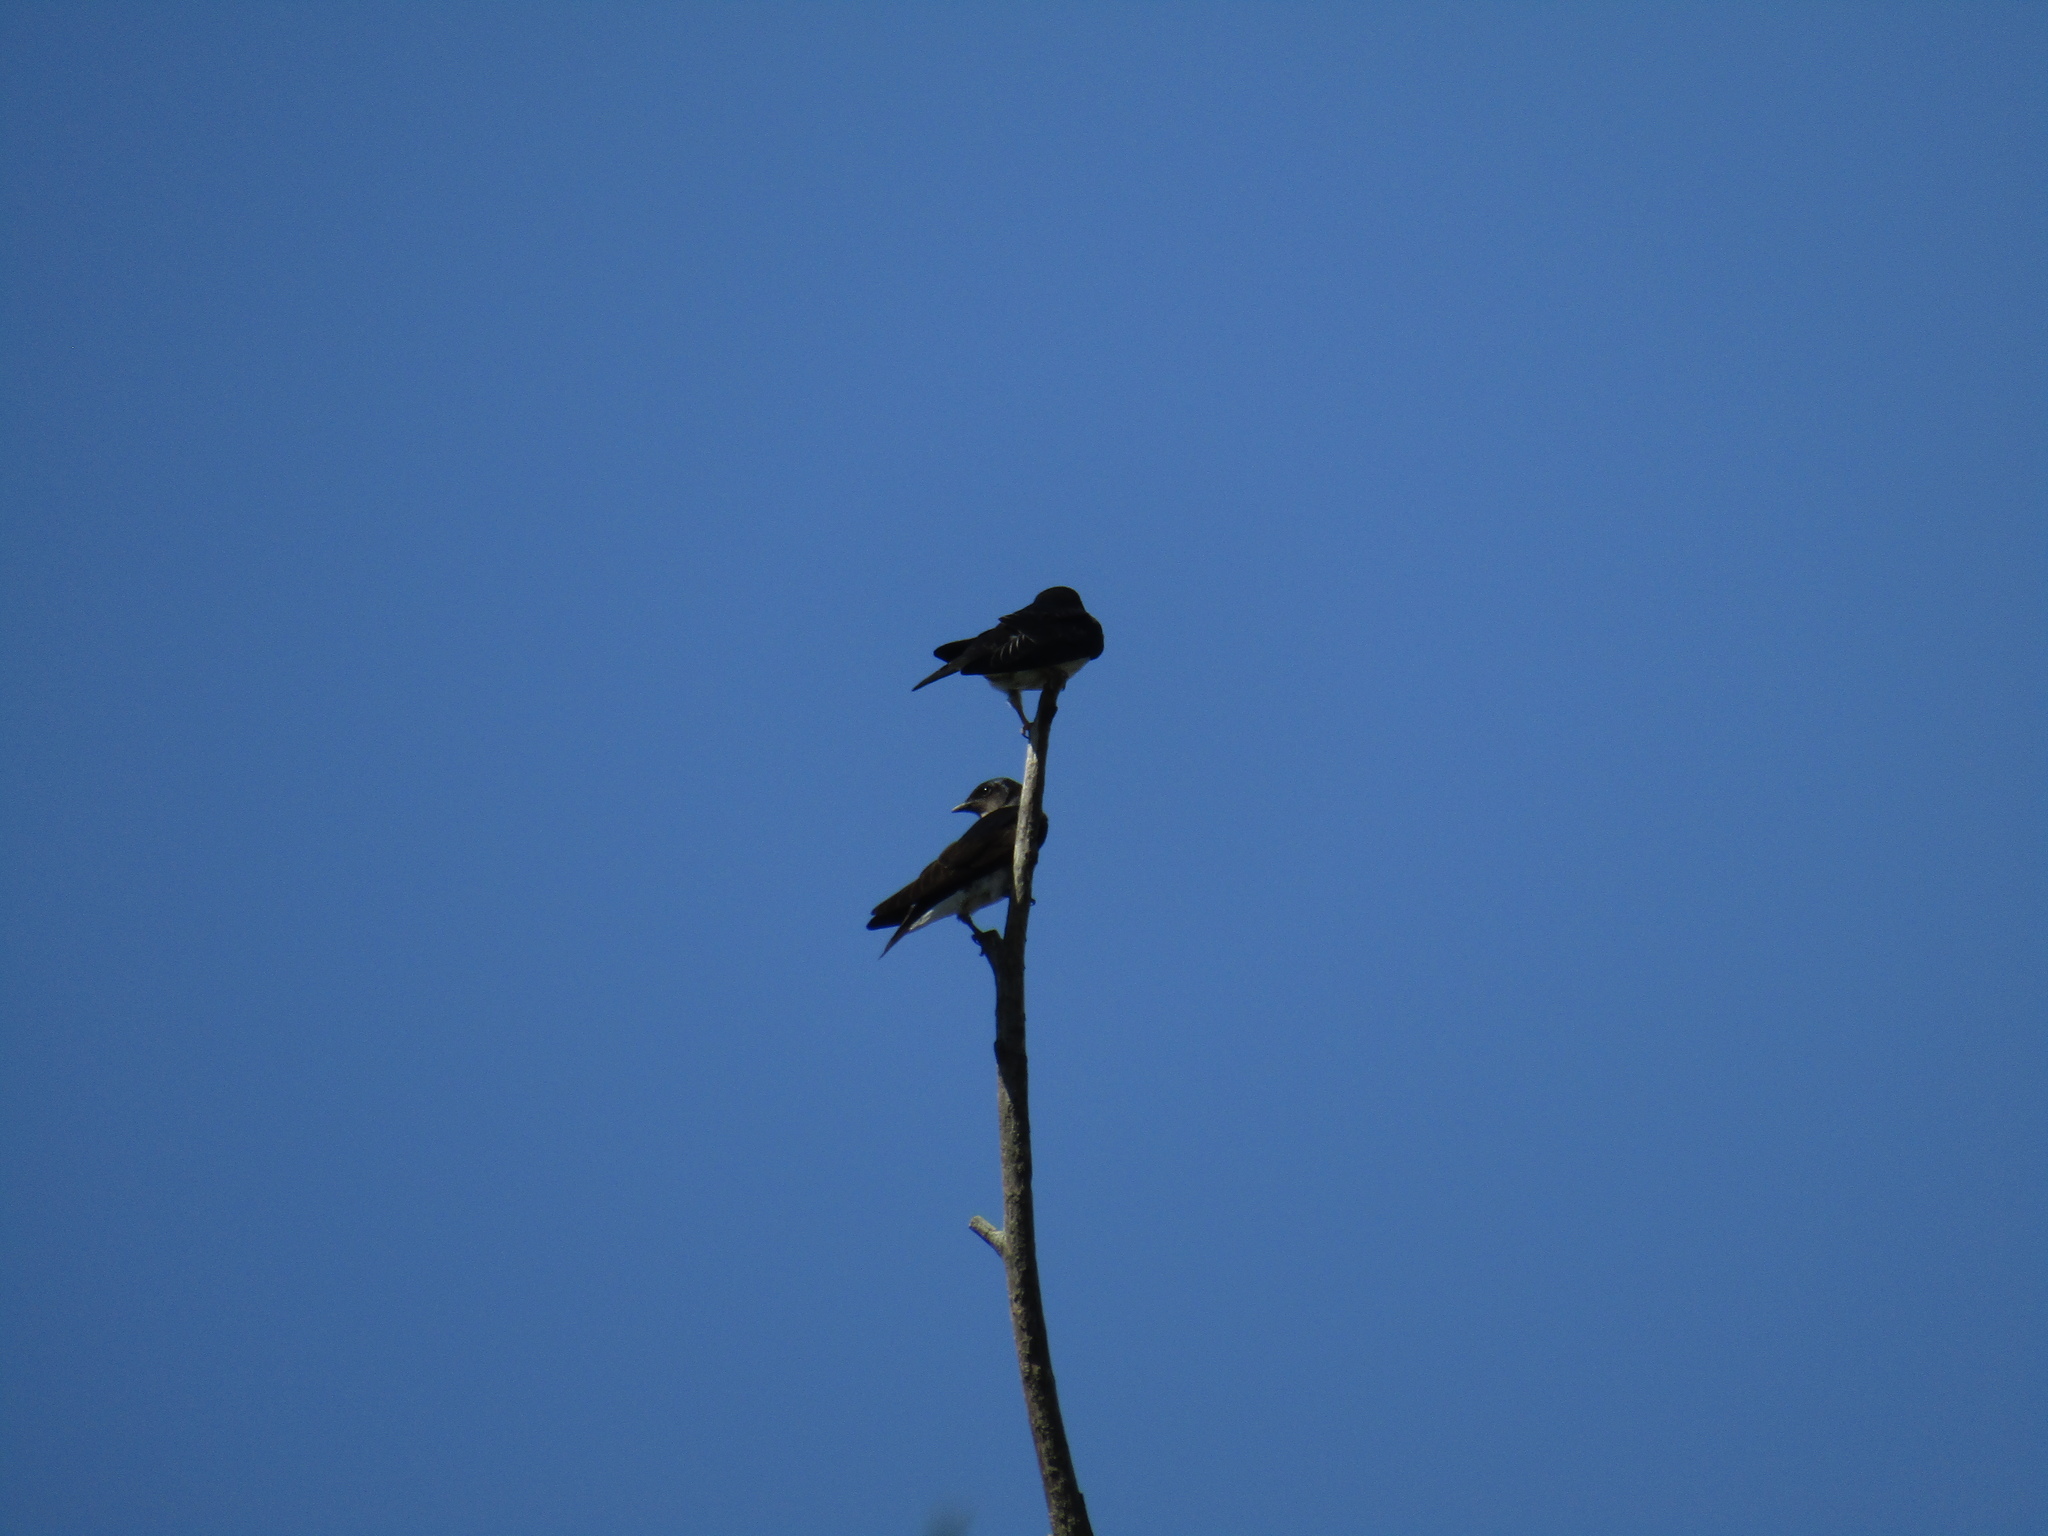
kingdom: Animalia
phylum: Chordata
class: Aves
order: Passeriformes
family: Hirundinidae
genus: Progne
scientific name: Progne chalybea
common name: Grey-breasted martin
